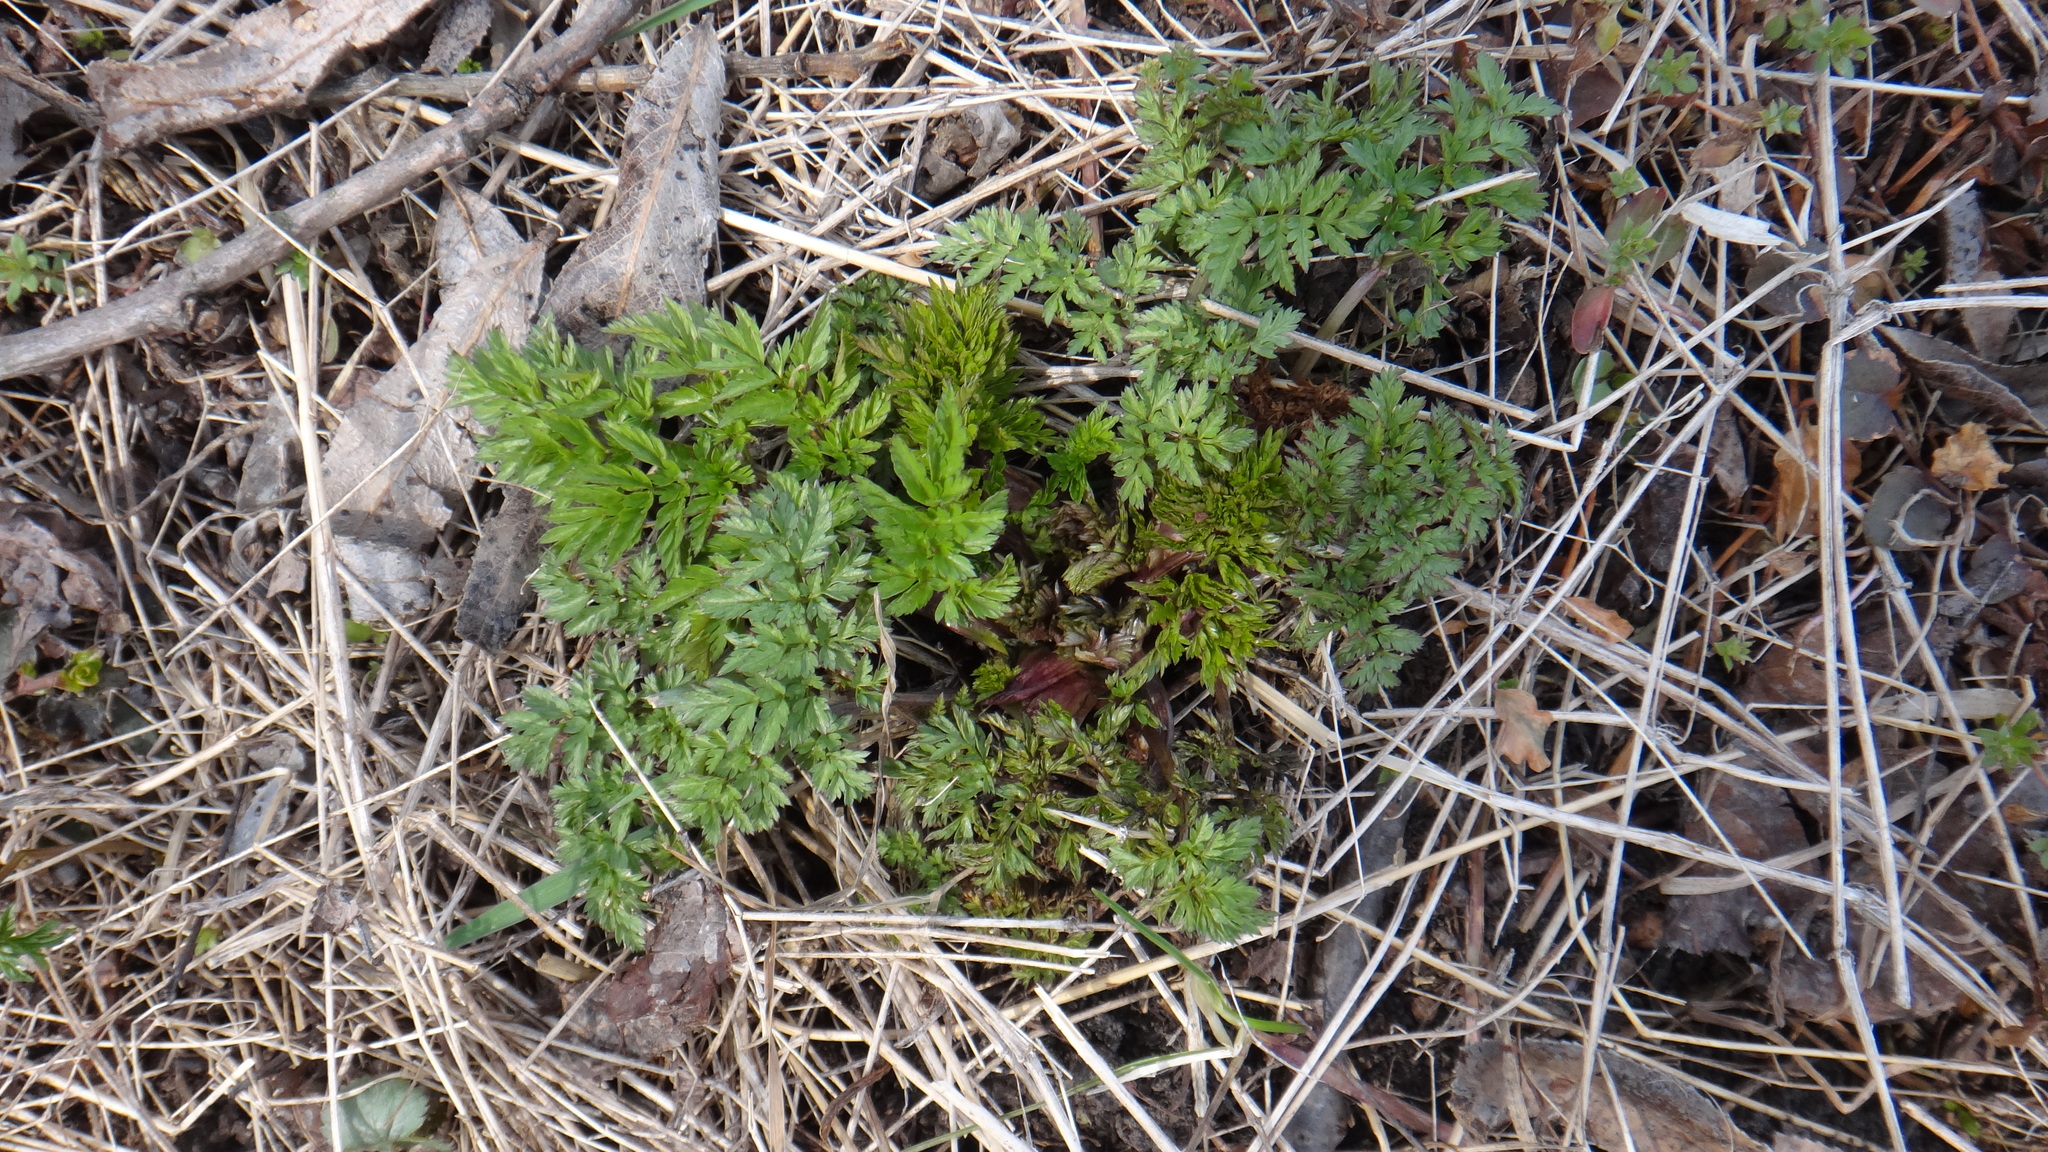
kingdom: Plantae
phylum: Tracheophyta
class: Magnoliopsida
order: Apiales
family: Apiaceae
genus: Anthriscus
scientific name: Anthriscus sylvestris
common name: Cow parsley
